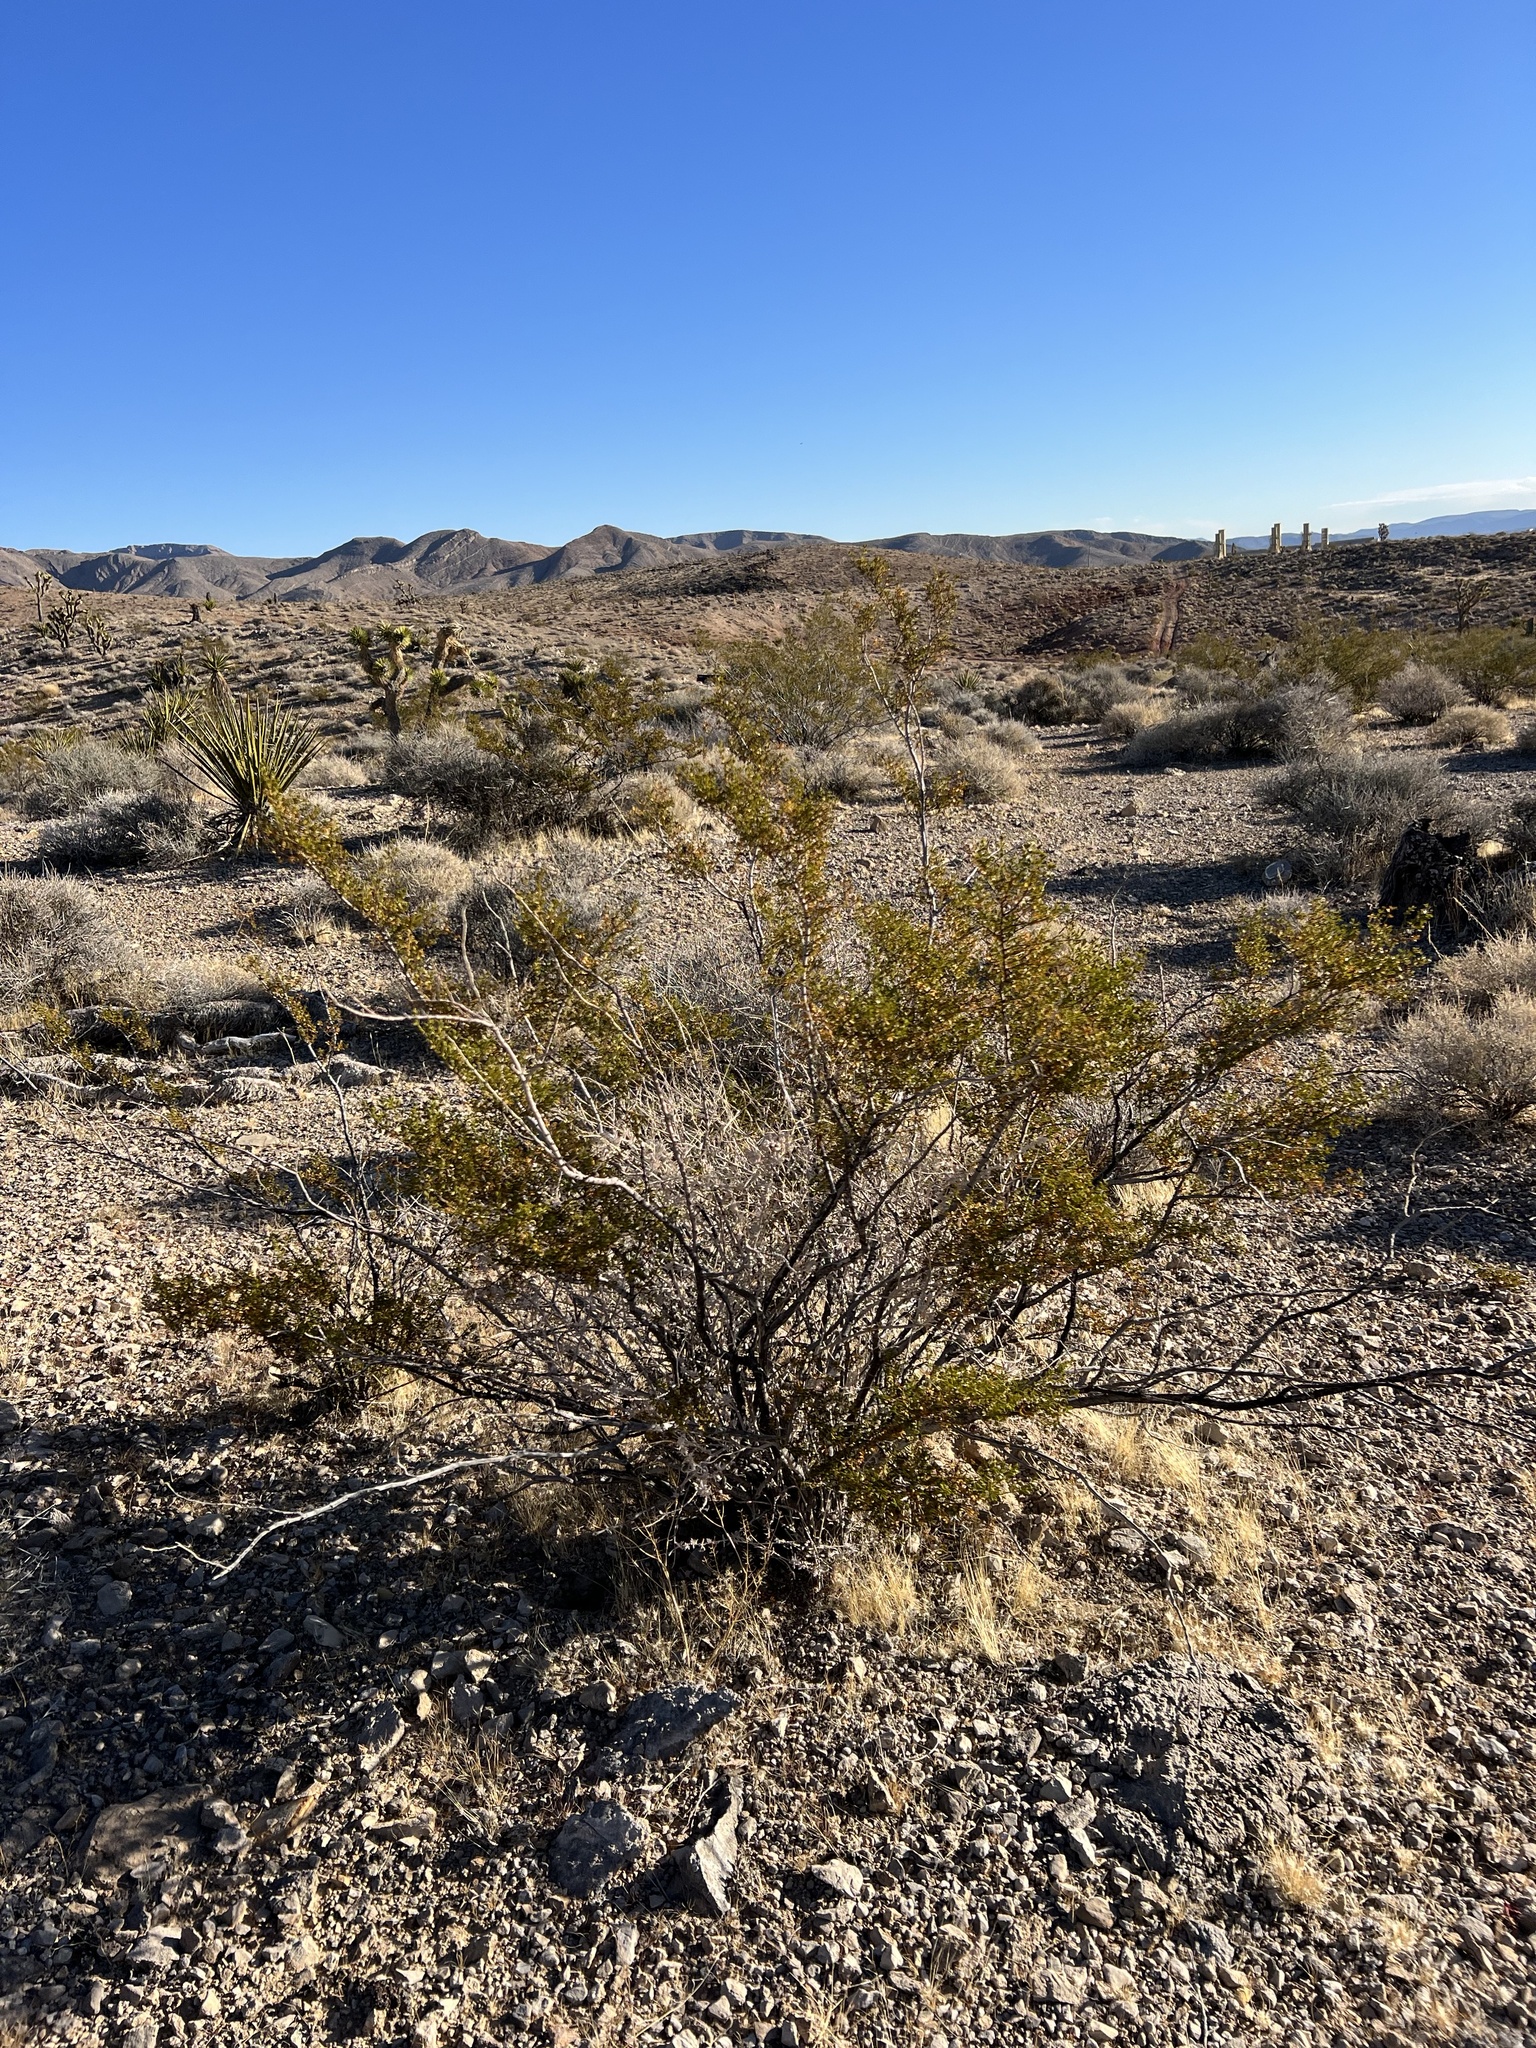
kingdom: Plantae
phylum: Tracheophyta
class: Magnoliopsida
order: Zygophyllales
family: Zygophyllaceae
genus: Larrea
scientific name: Larrea tridentata
